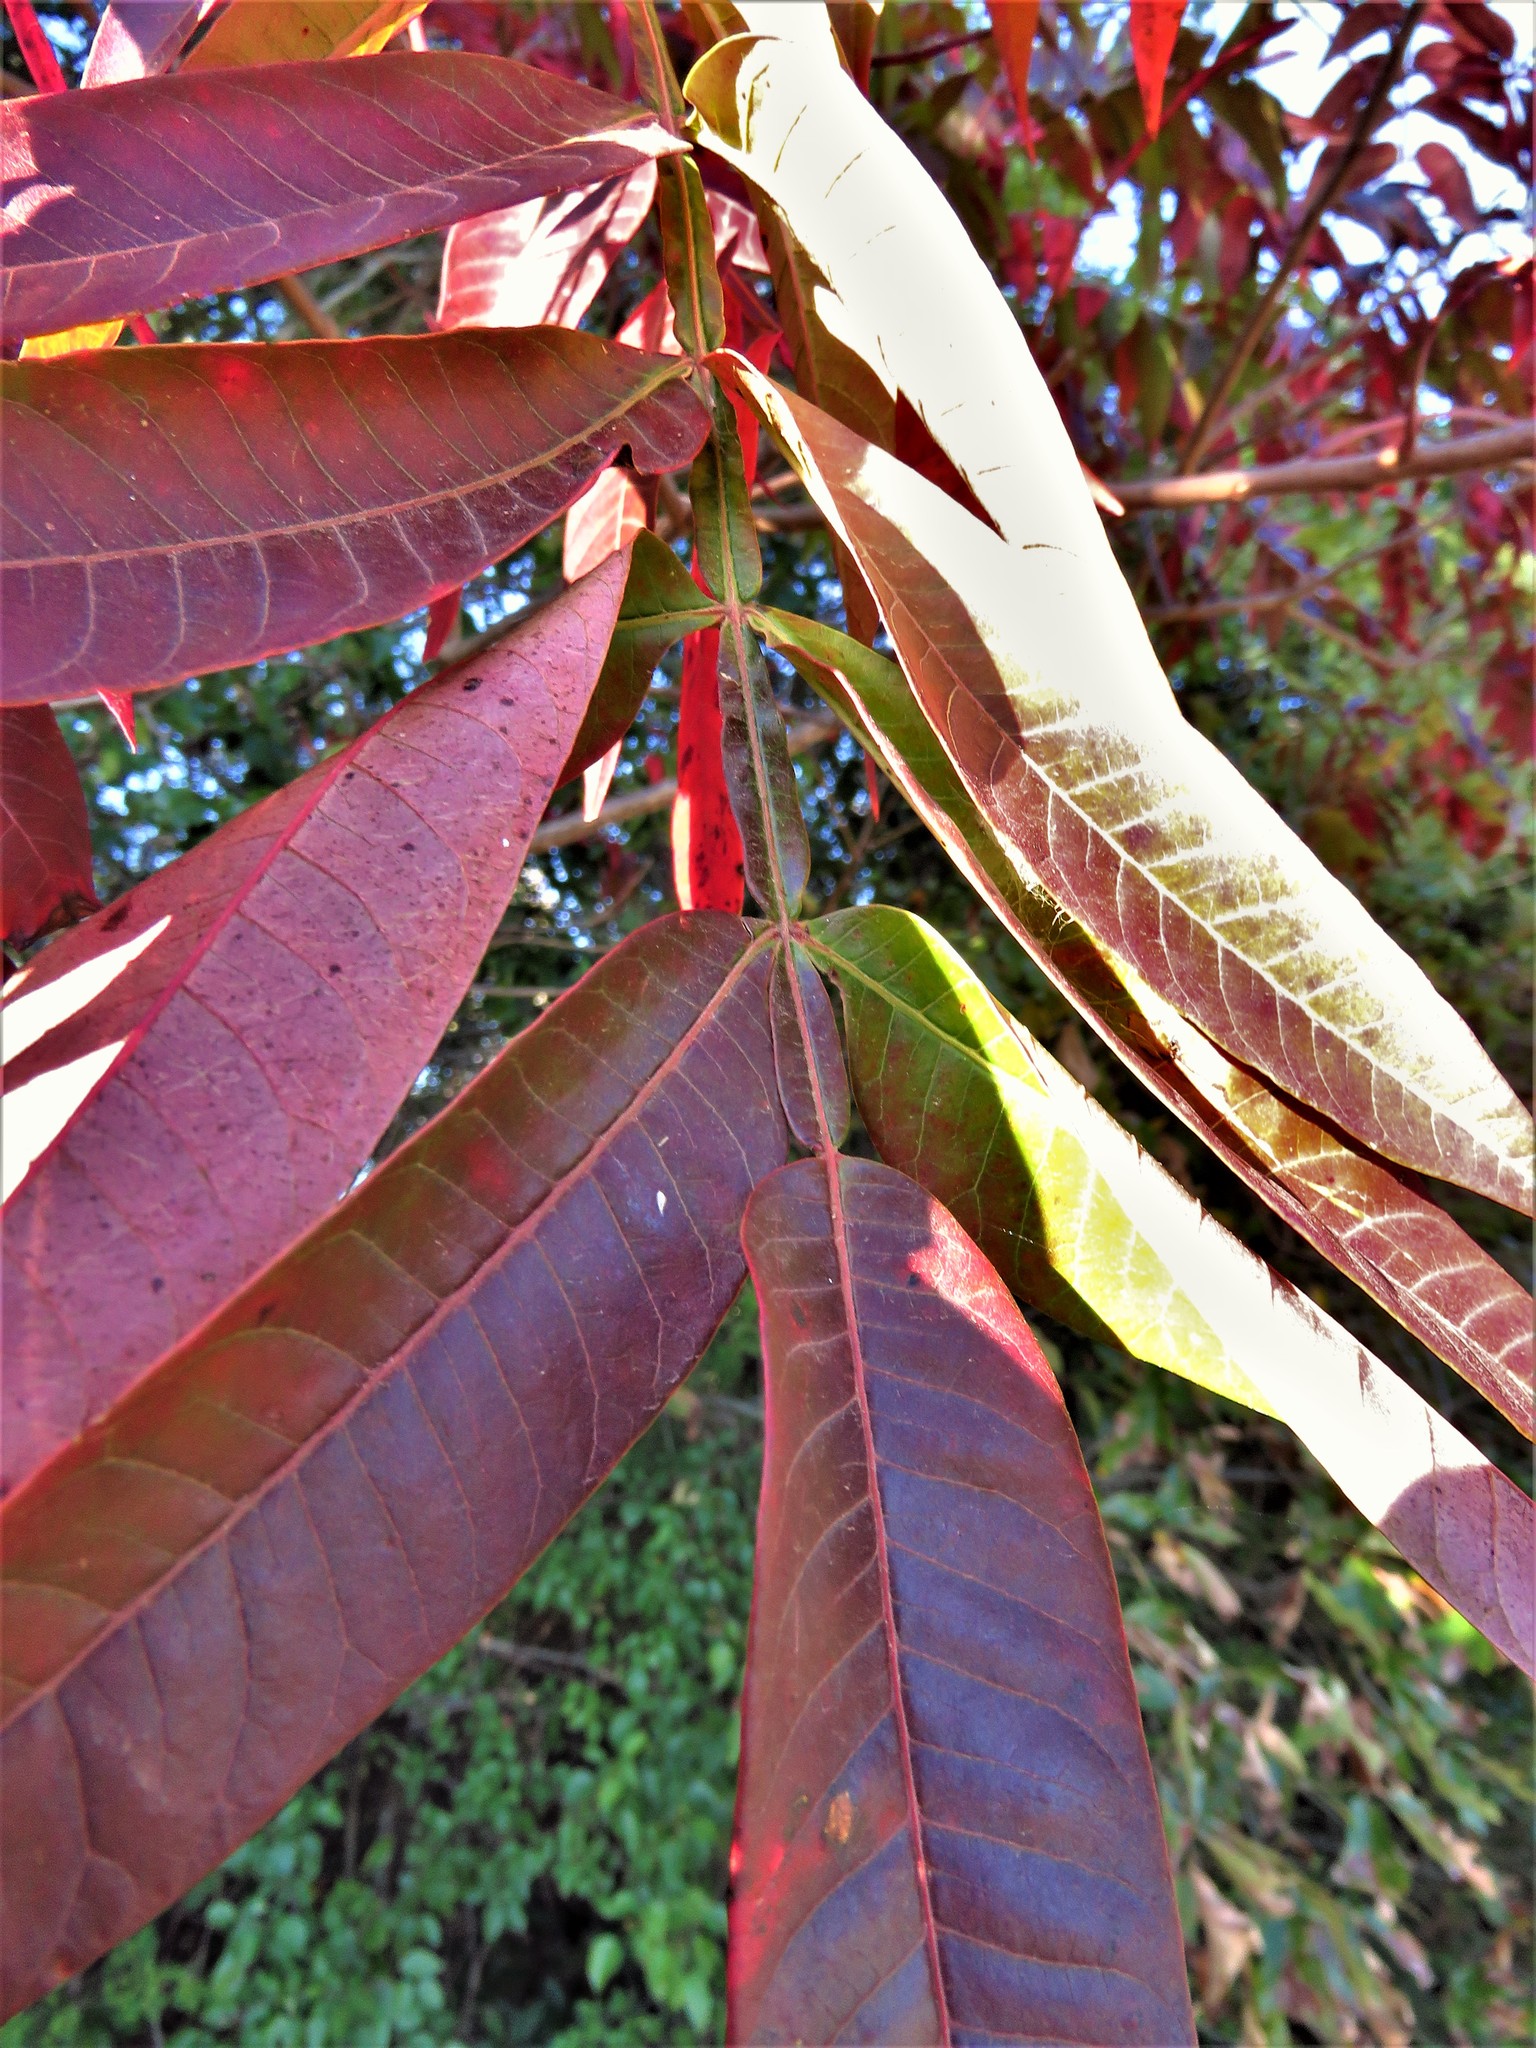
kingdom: Plantae
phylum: Tracheophyta
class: Magnoliopsida
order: Sapindales
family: Anacardiaceae
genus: Rhus
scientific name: Rhus copallina
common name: Shining sumac
